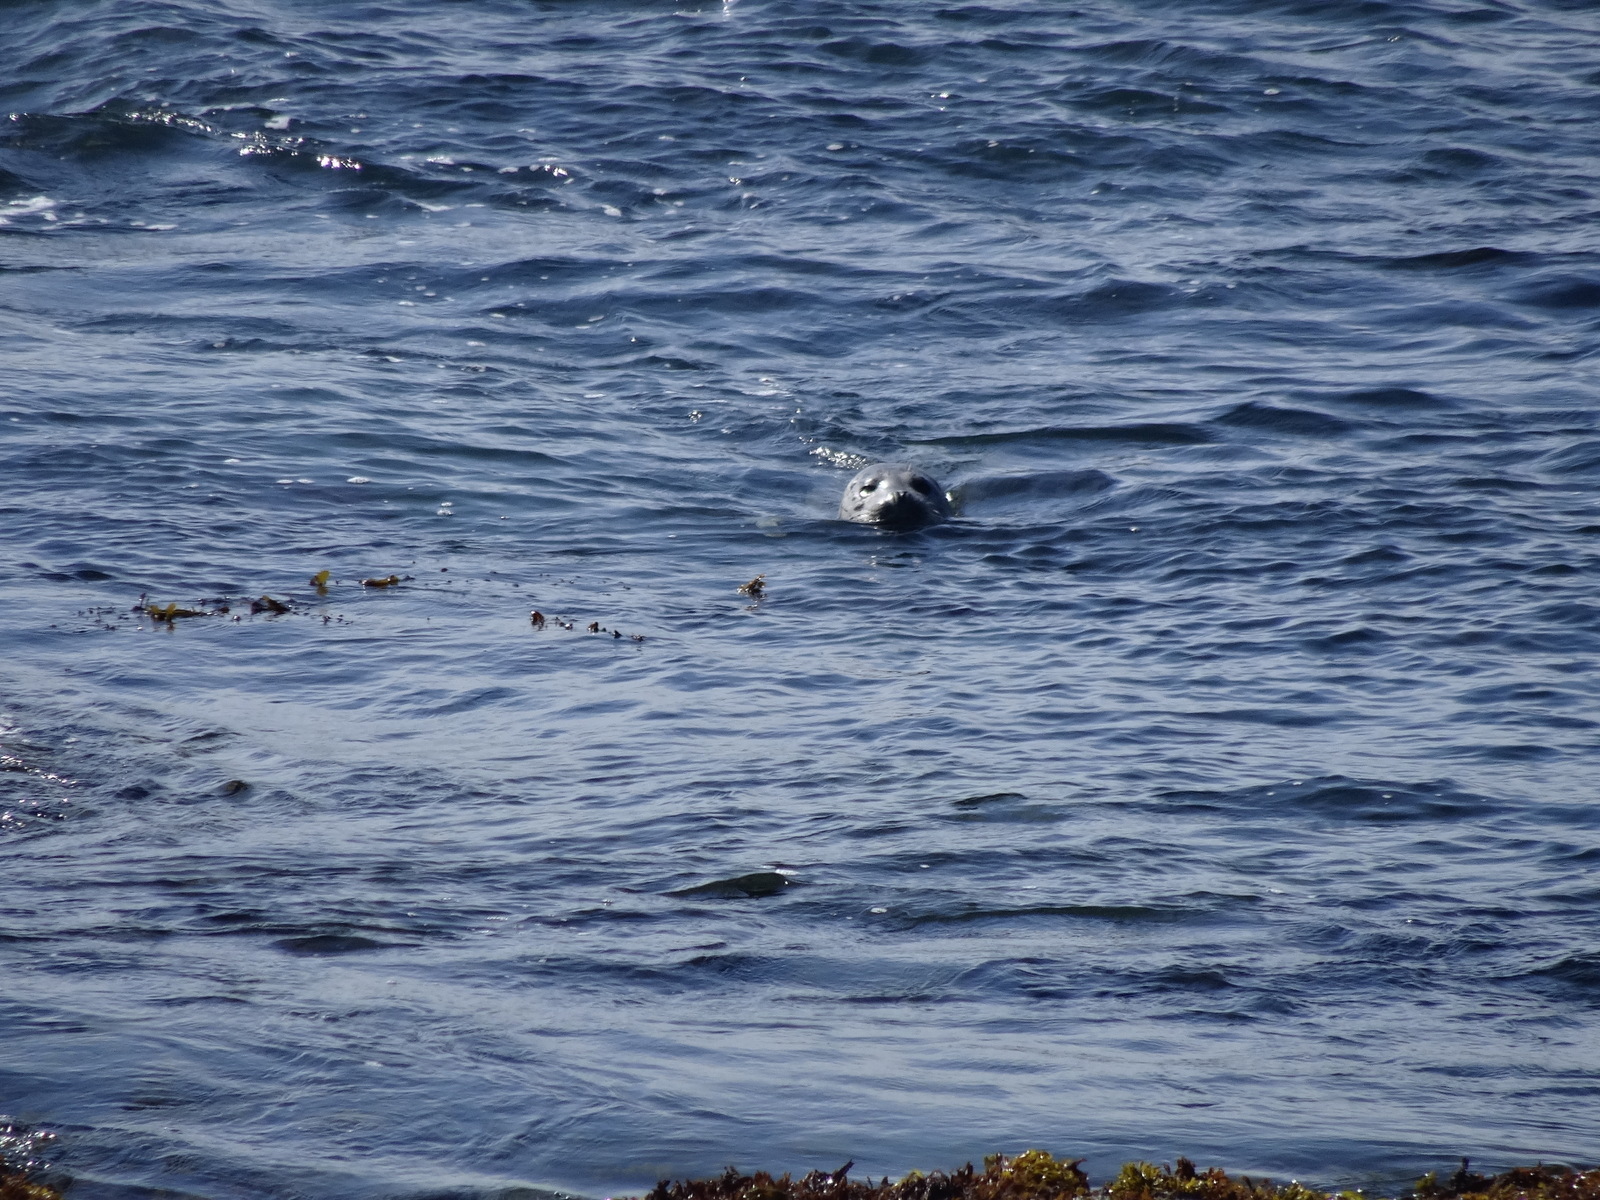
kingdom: Animalia
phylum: Chordata
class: Mammalia
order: Carnivora
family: Phocidae
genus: Phoca
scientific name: Phoca vitulina
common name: Harbor seal
